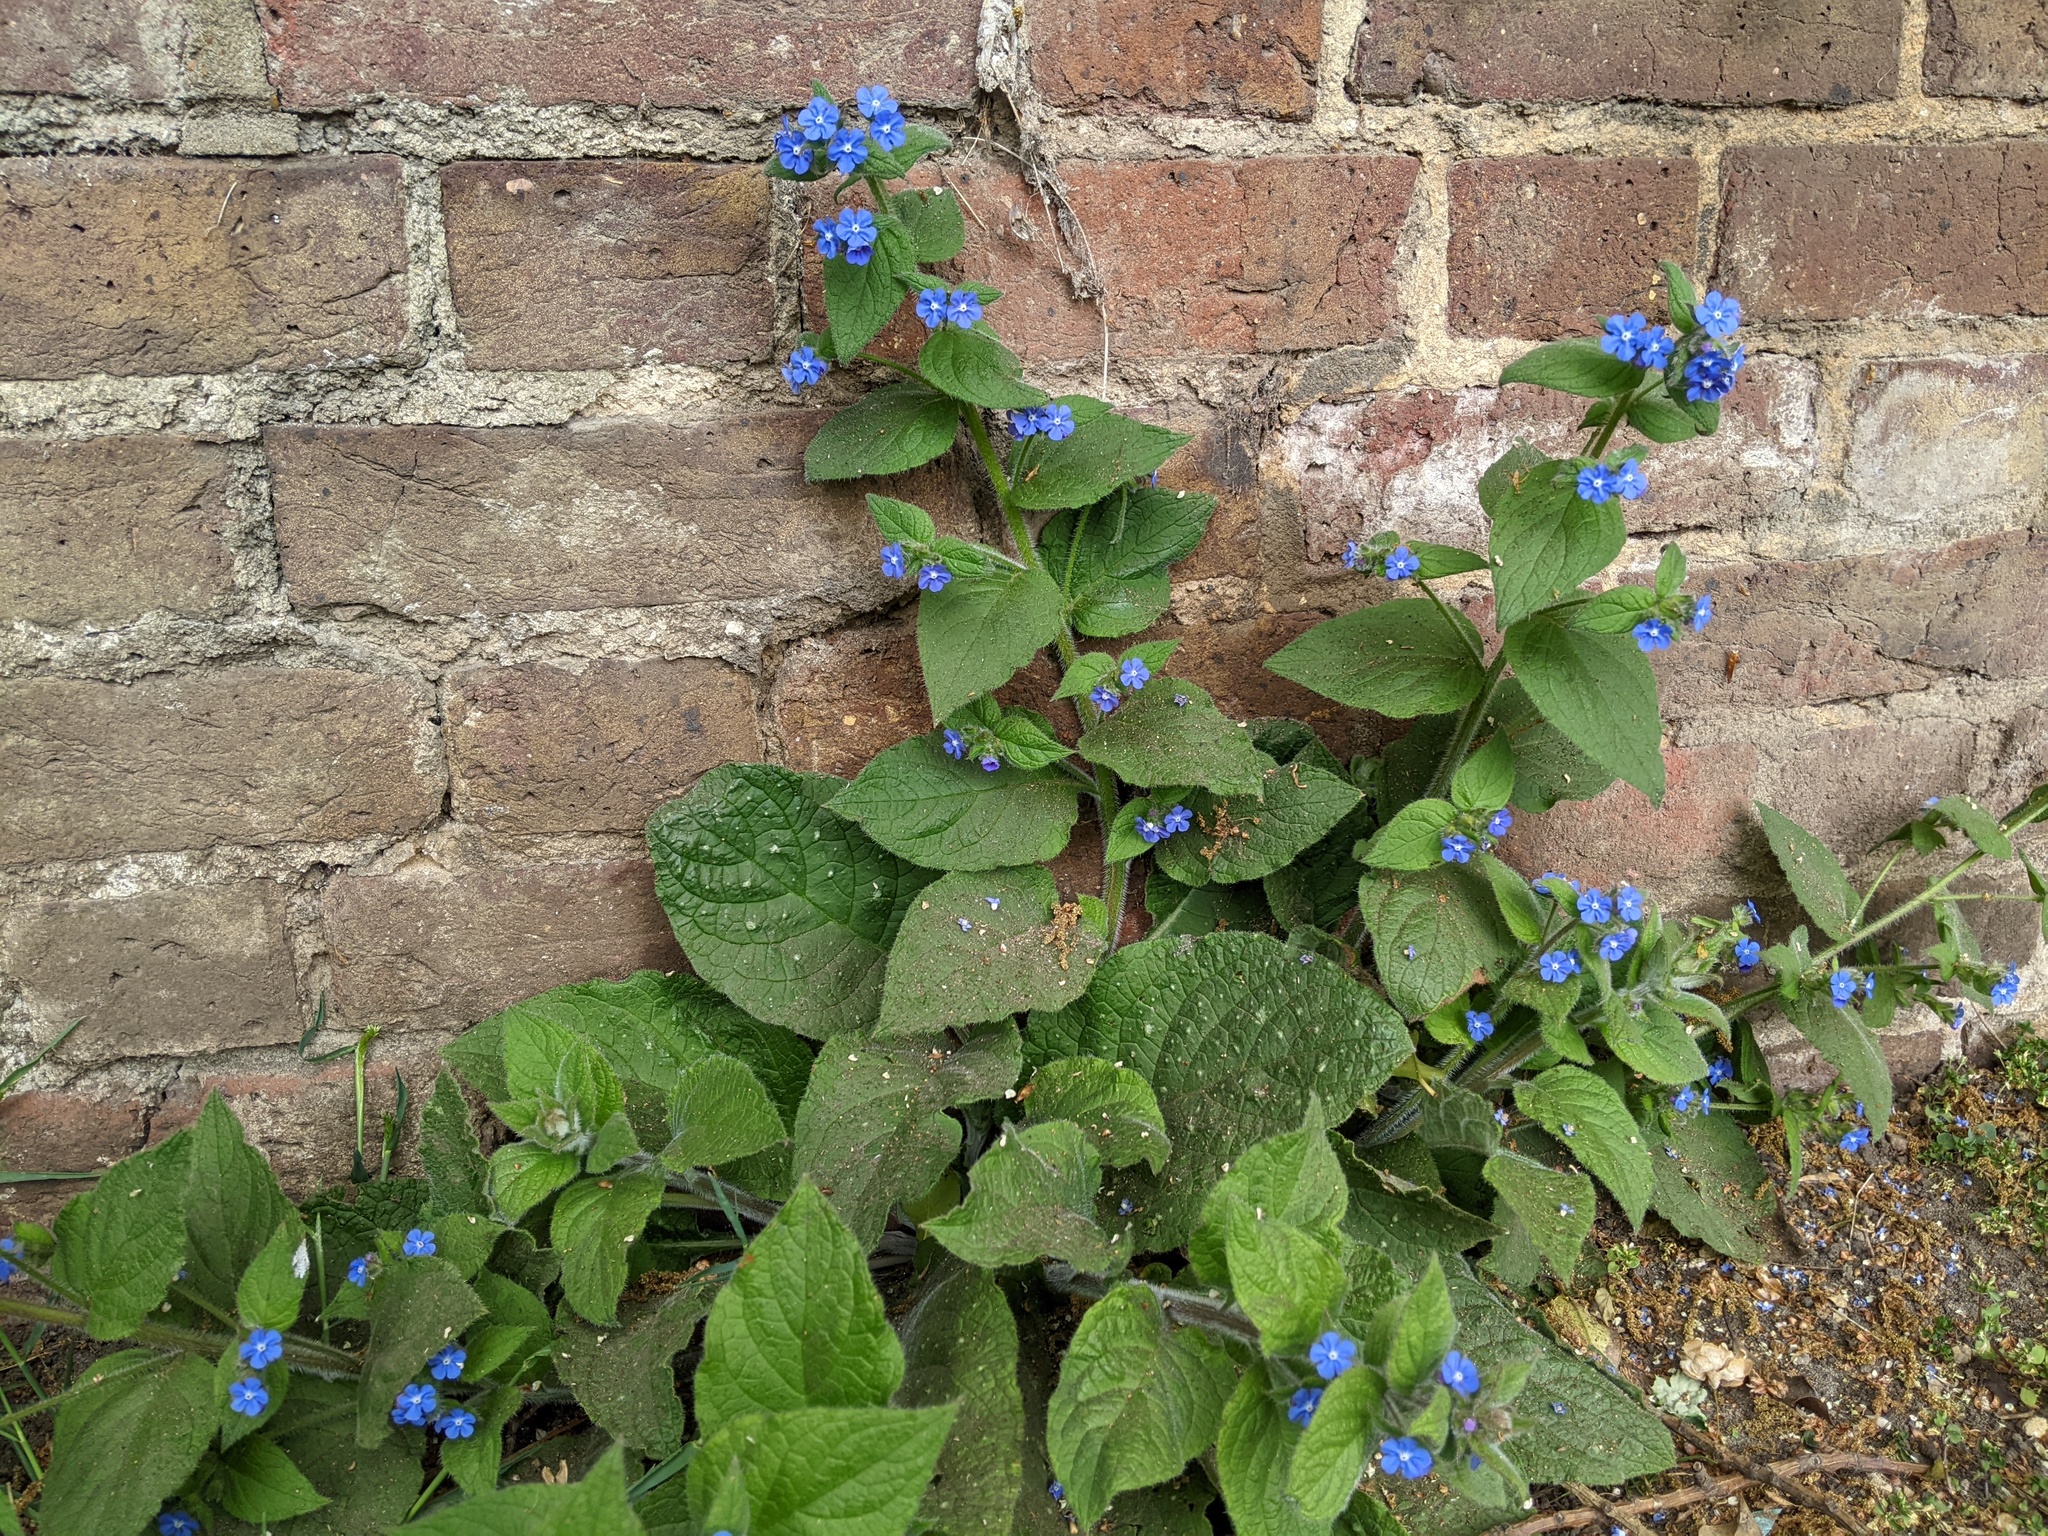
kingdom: Plantae
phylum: Tracheophyta
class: Magnoliopsida
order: Boraginales
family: Boraginaceae
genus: Pentaglottis
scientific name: Pentaglottis sempervirens
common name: Green alkanet
